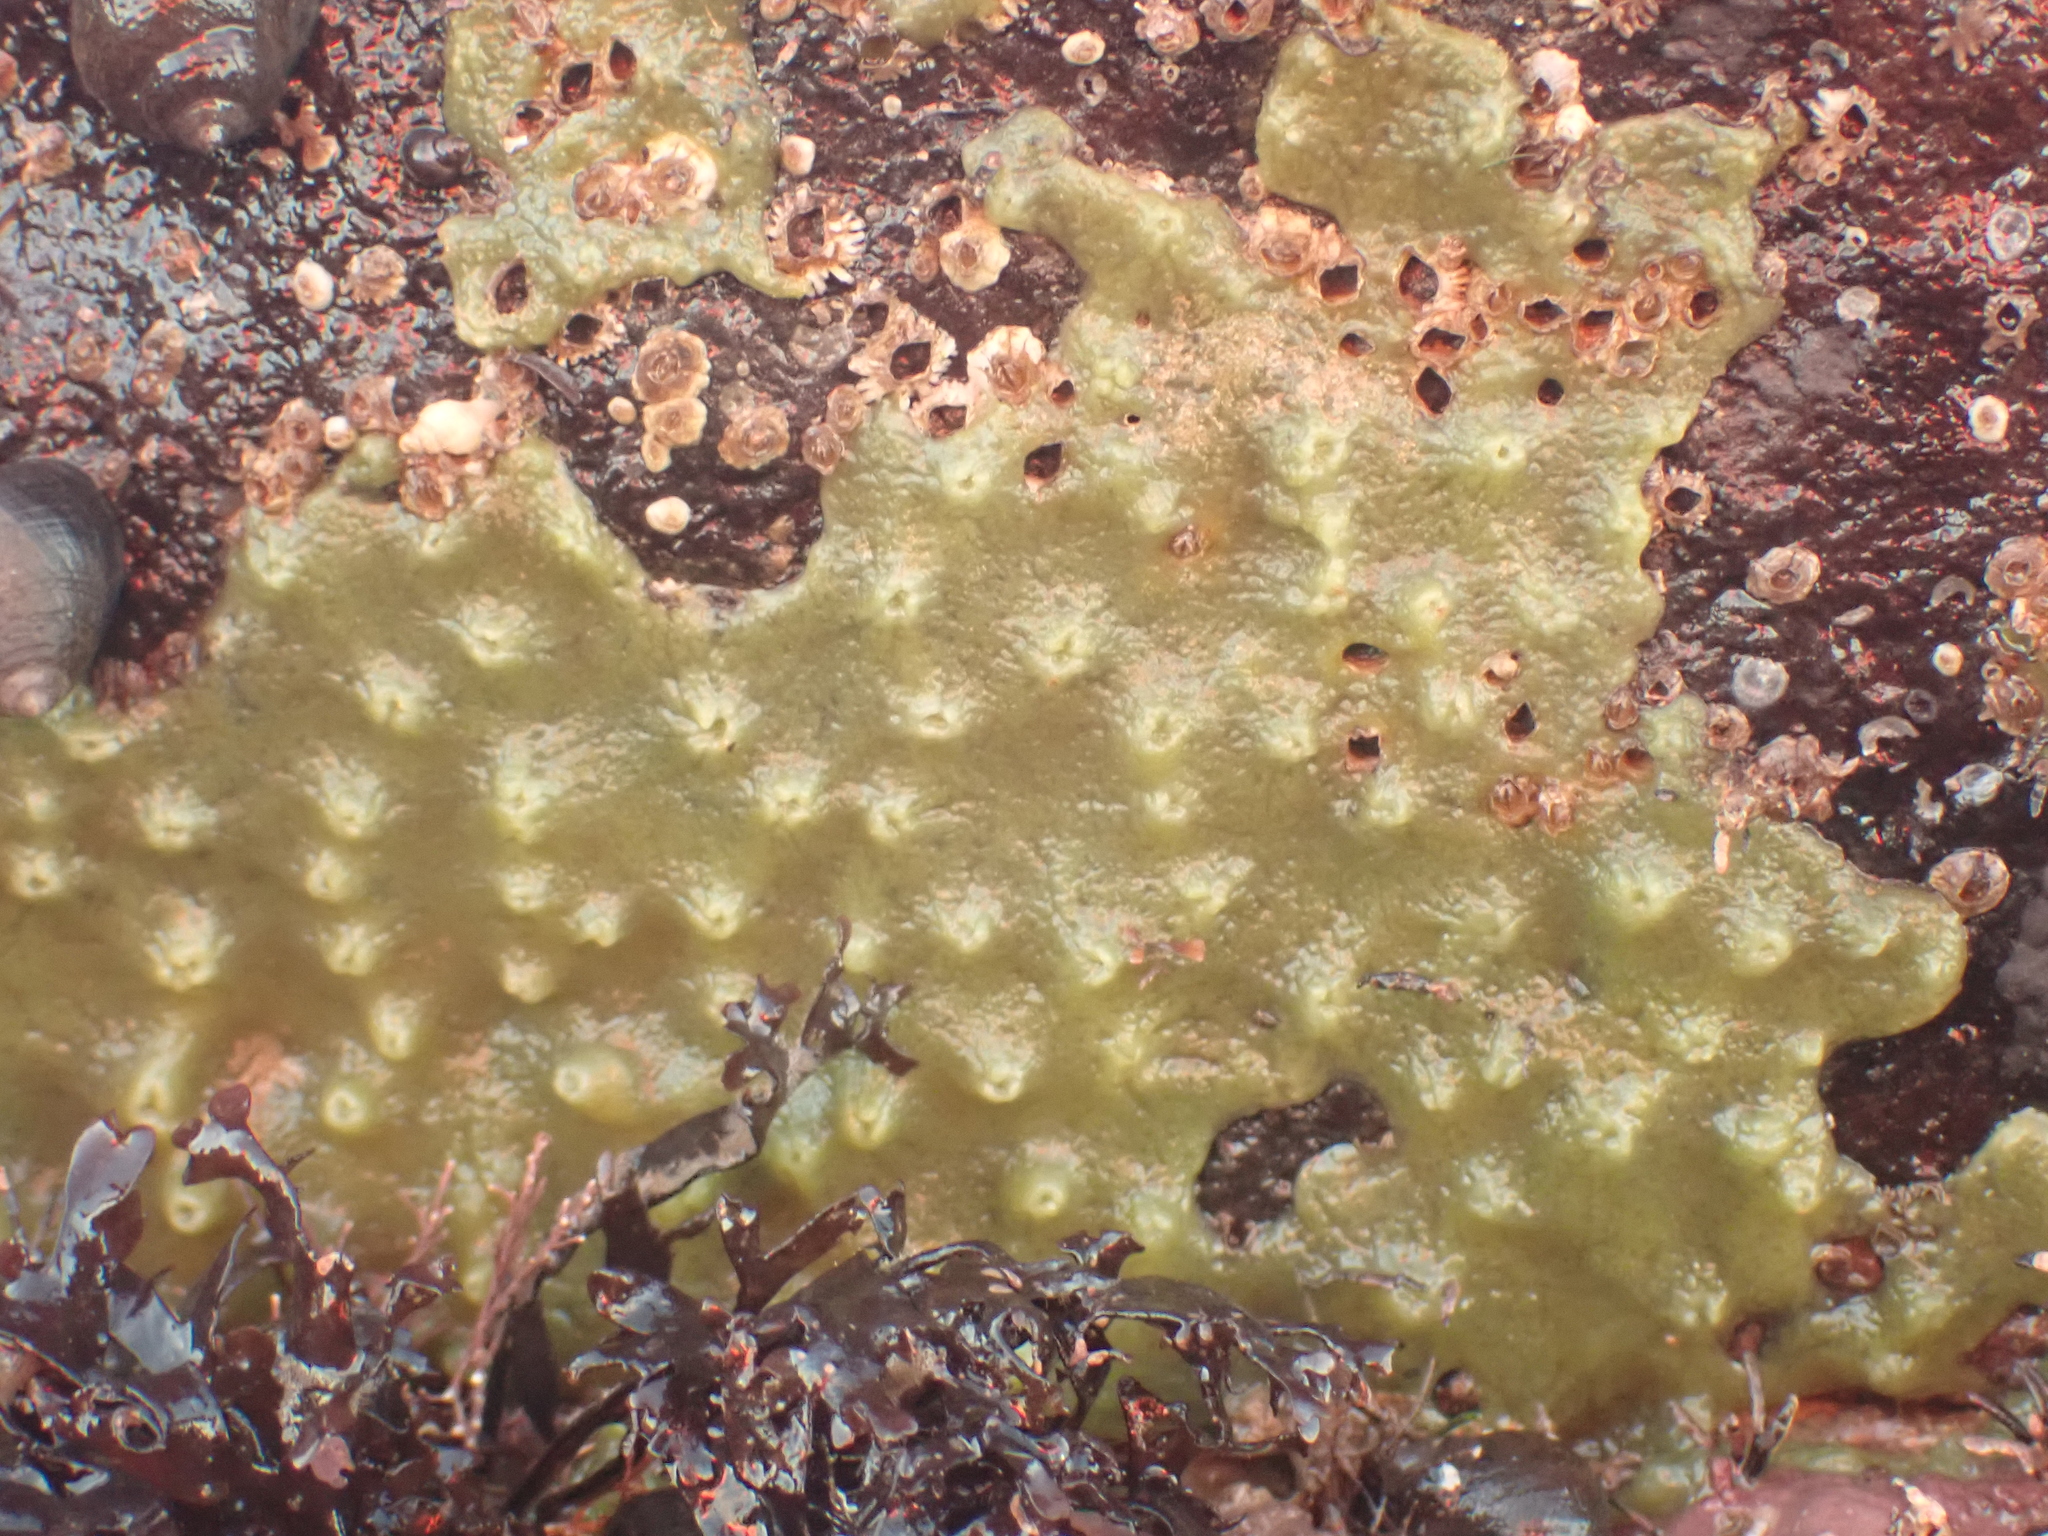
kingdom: Animalia
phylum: Porifera
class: Demospongiae
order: Suberitida
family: Halichondriidae
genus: Halichondria
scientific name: Halichondria
